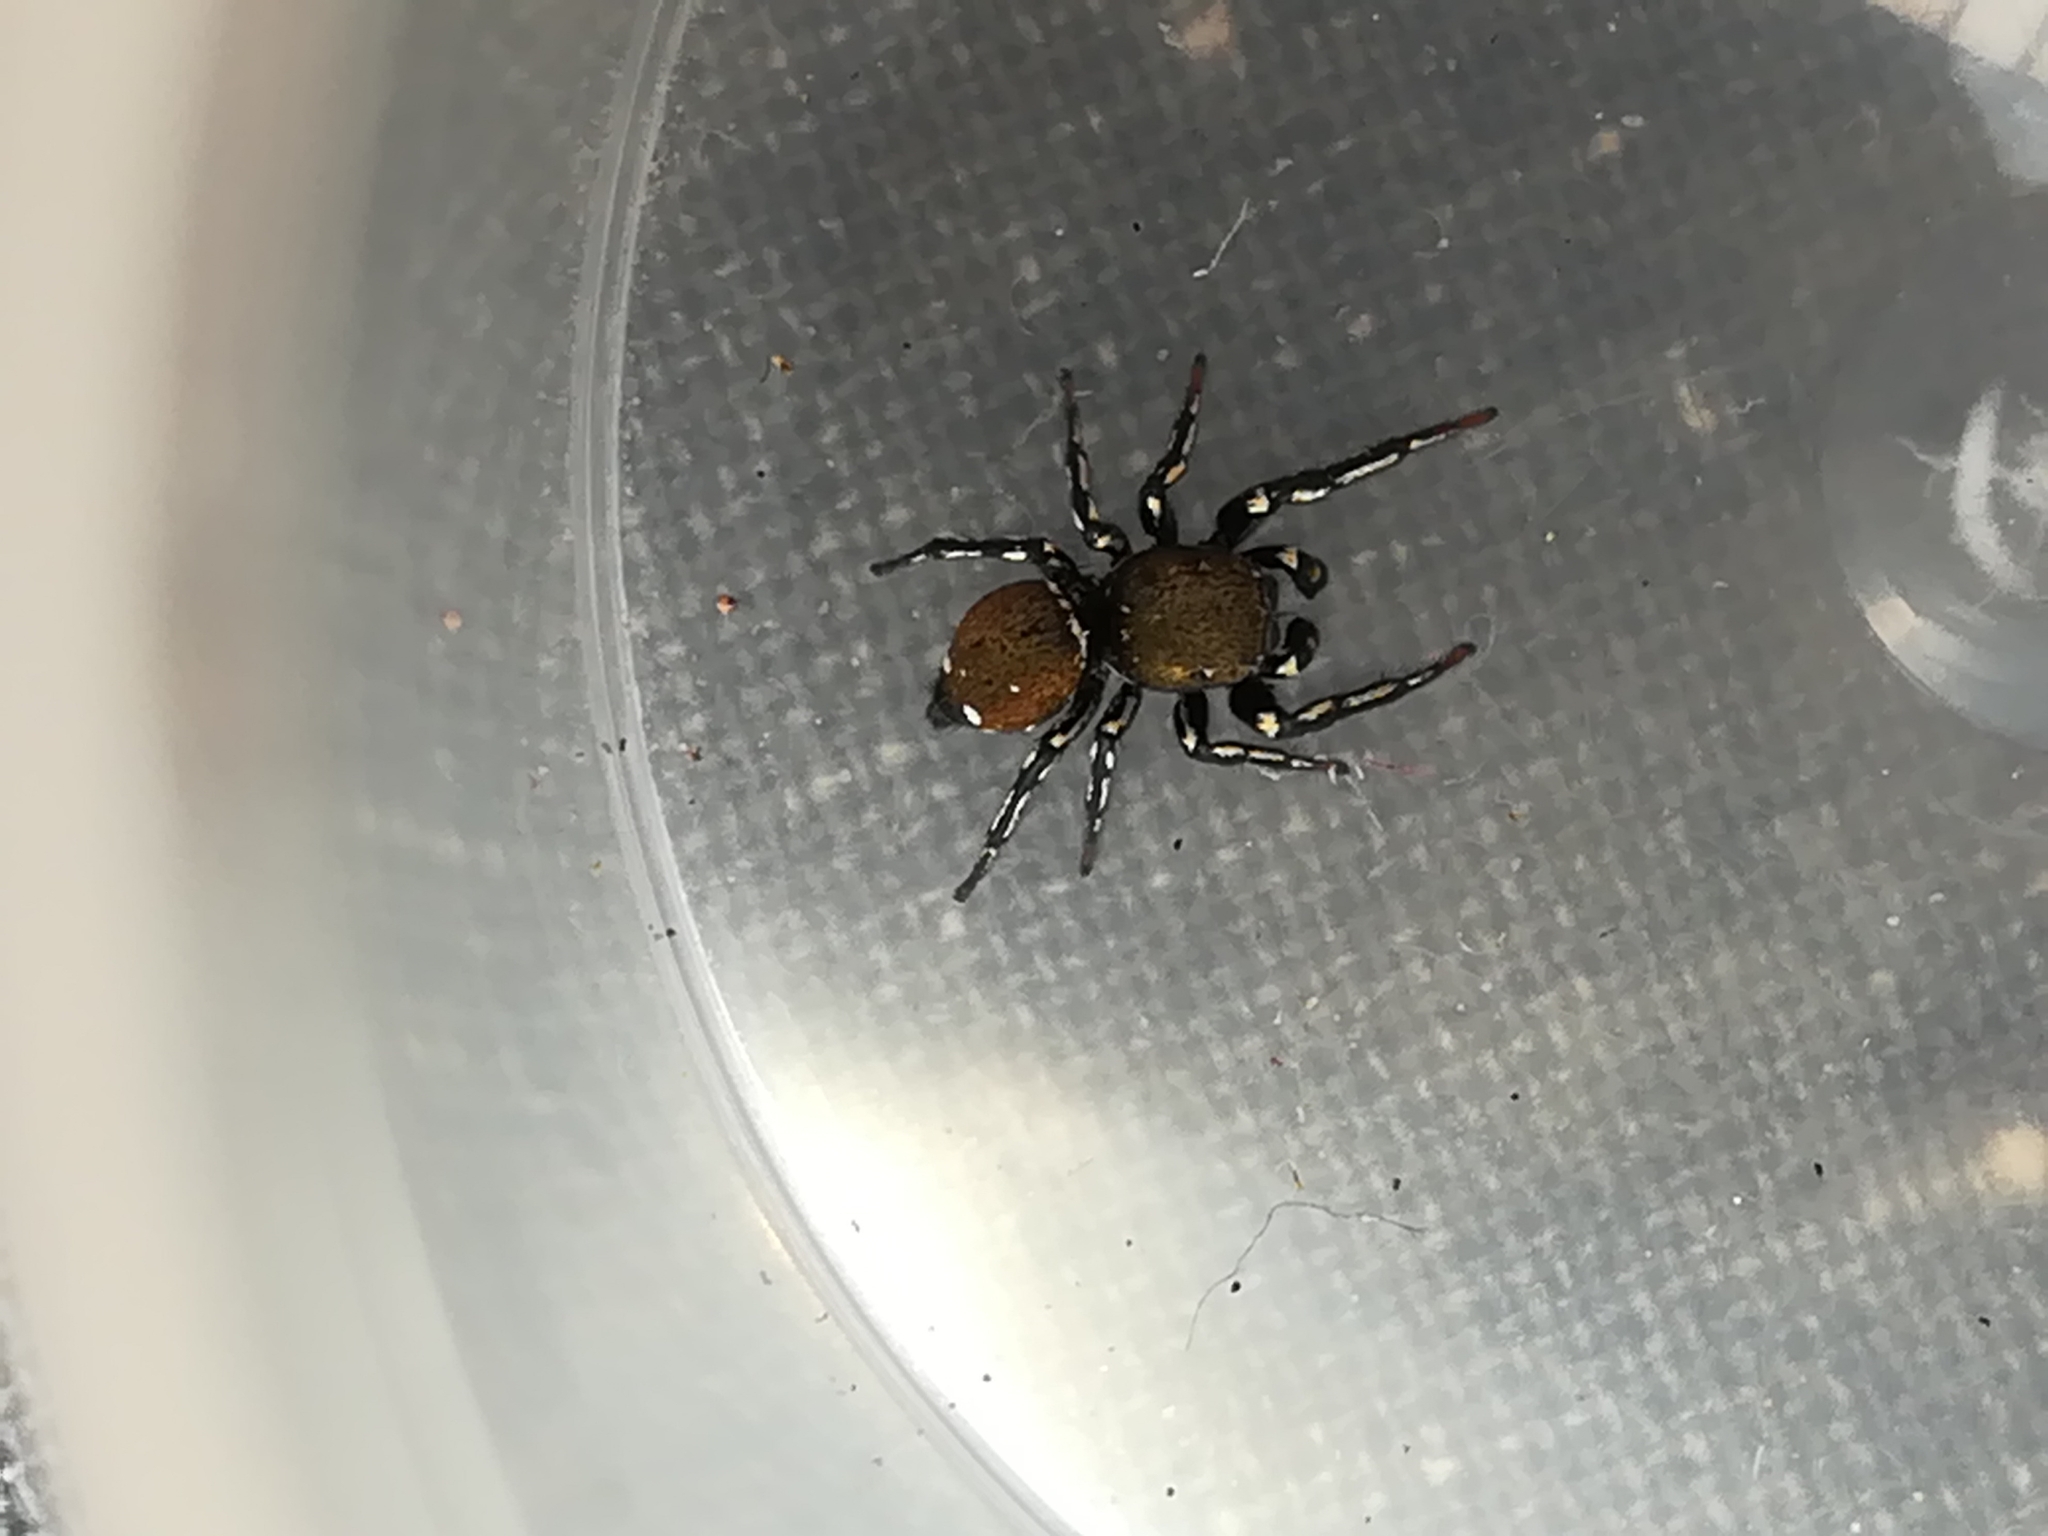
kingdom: Animalia
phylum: Arthropoda
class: Arachnida
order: Araneae
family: Salticidae
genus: Heliophanus
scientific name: Heliophanus kochii
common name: Sun jumping spider
